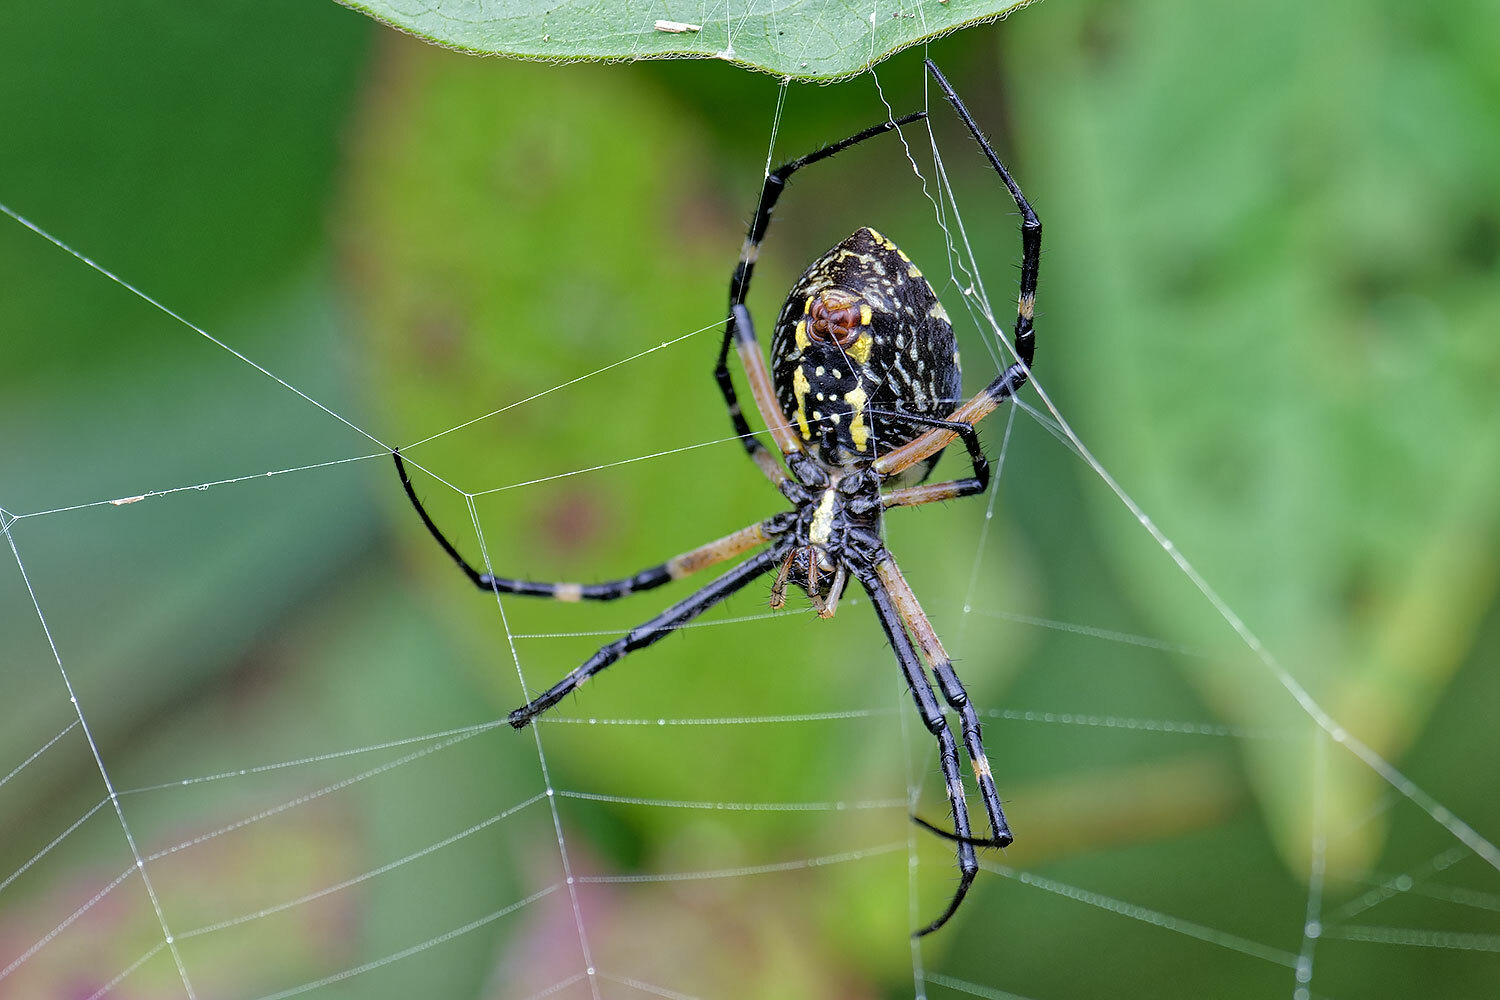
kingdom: Animalia
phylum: Arthropoda
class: Arachnida
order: Araneae
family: Araneidae
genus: Argiope
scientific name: Argiope aurantia
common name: Orb weavers
